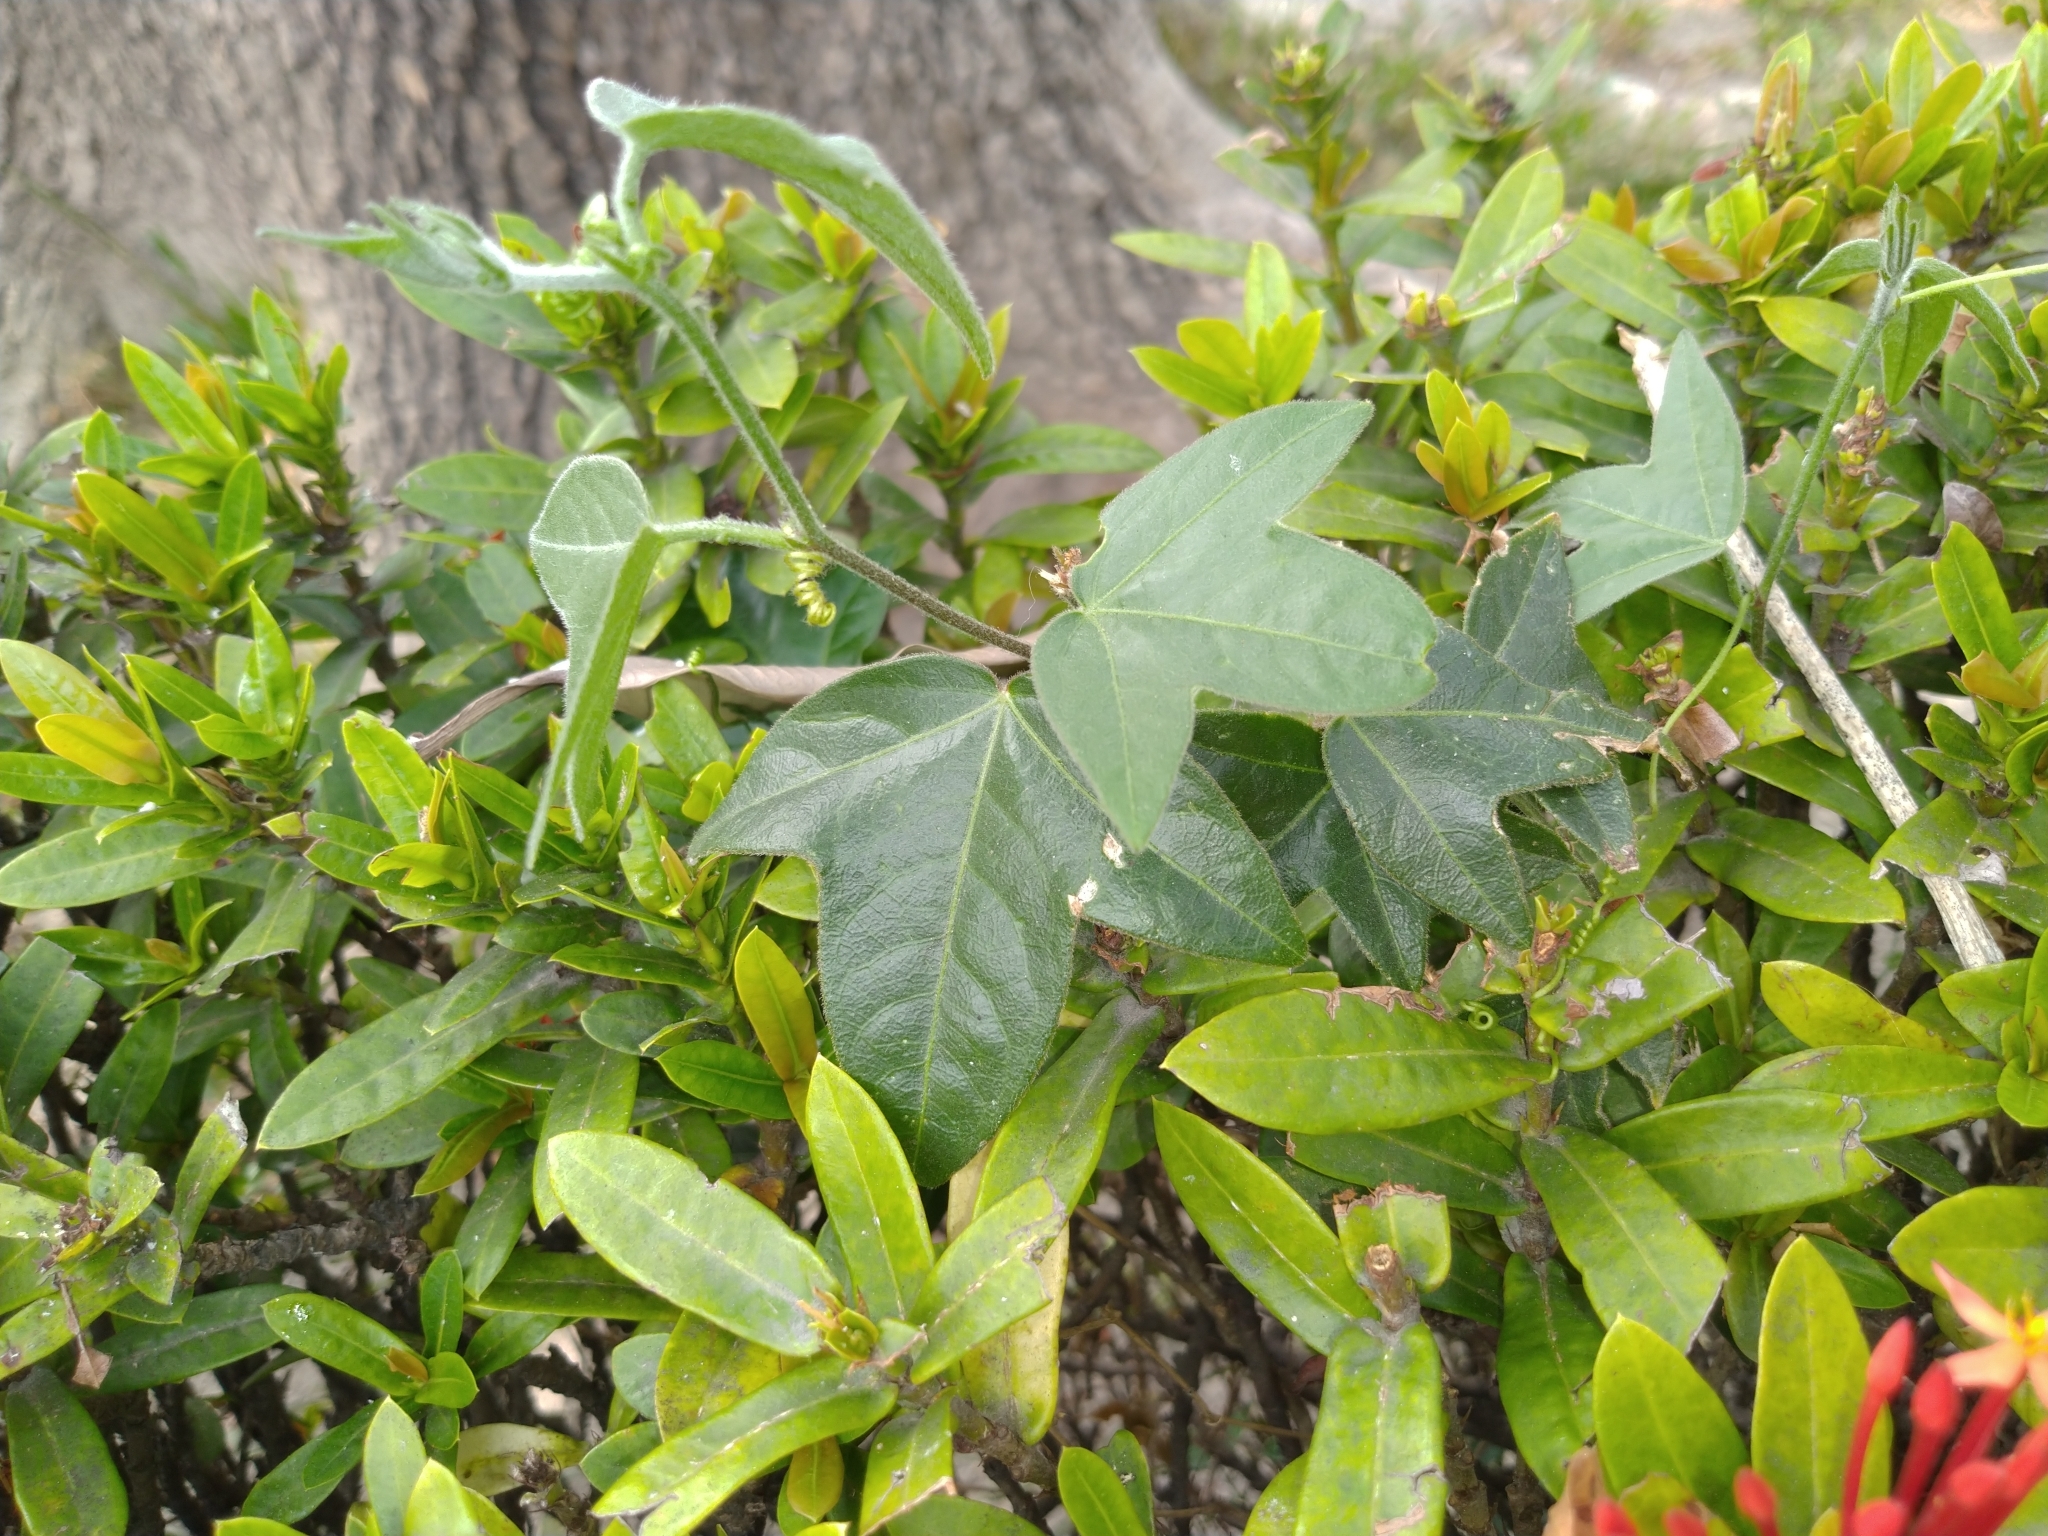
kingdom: Plantae
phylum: Tracheophyta
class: Magnoliopsida
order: Malpighiales
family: Passifloraceae
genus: Passiflora
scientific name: Passiflora suberosa
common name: Wild passionfruit
